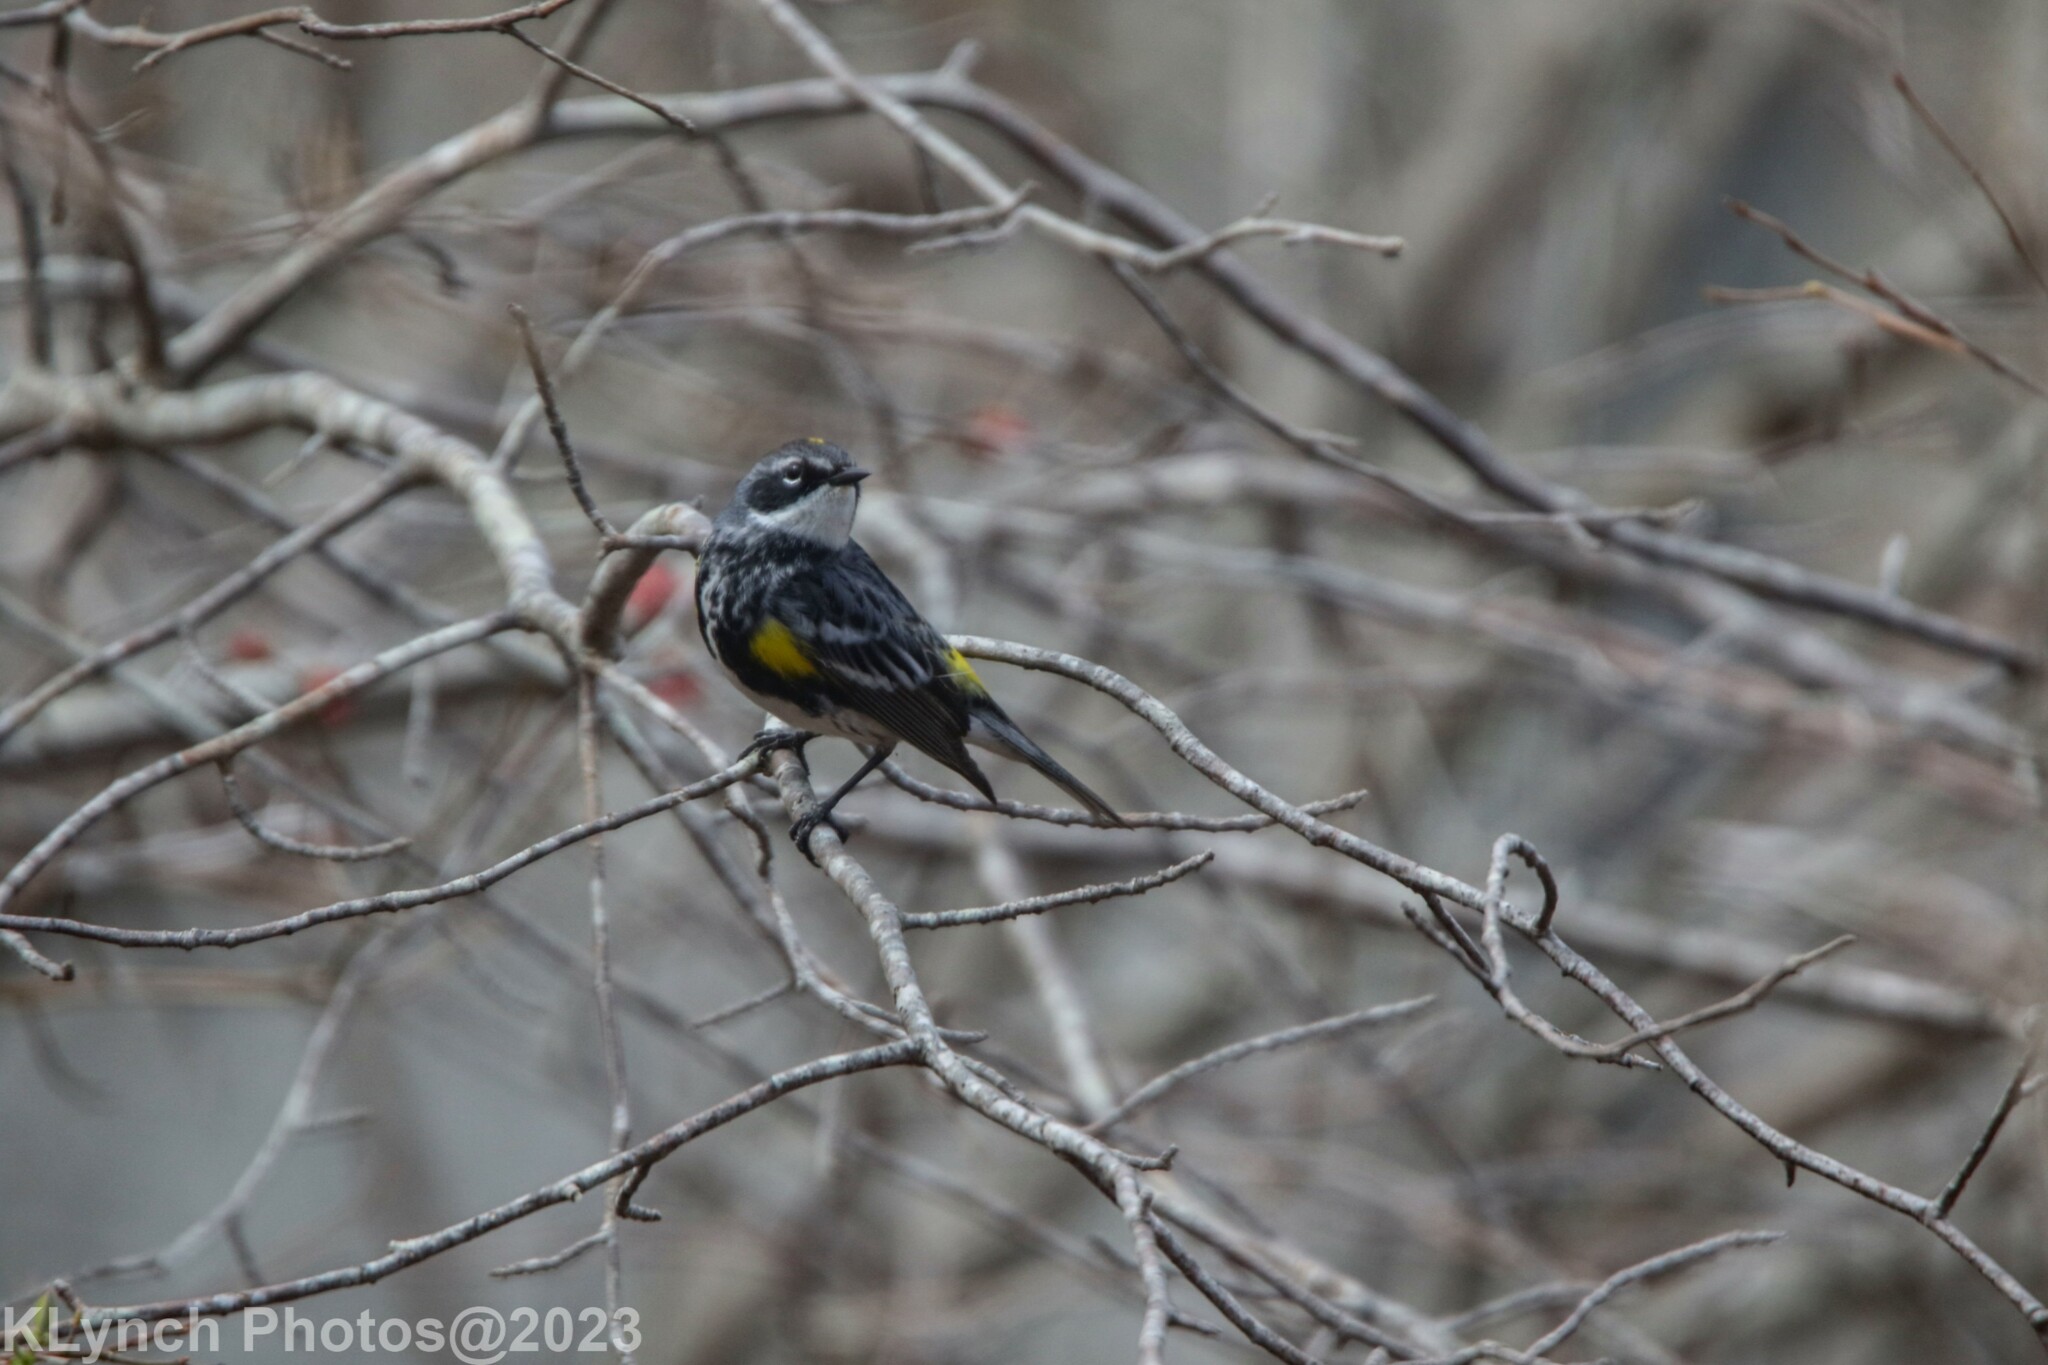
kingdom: Animalia
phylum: Chordata
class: Aves
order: Passeriformes
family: Parulidae
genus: Setophaga
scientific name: Setophaga coronata
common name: Myrtle warbler
